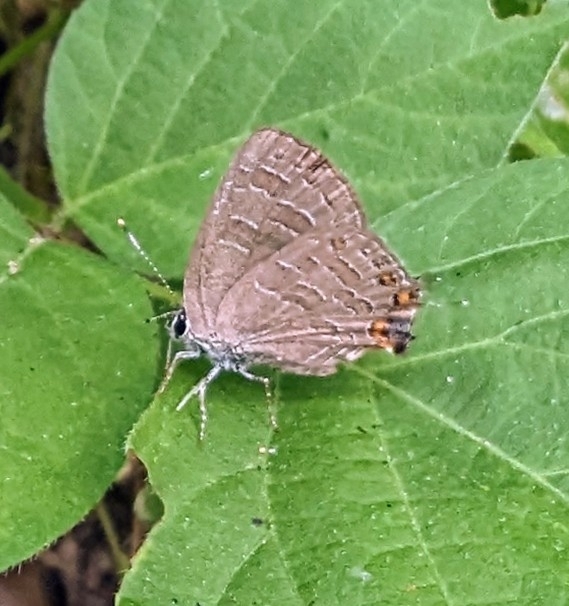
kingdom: Animalia
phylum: Arthropoda
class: Insecta
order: Lepidoptera
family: Lycaenidae
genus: Satyrium
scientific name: Satyrium liparops
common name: Striped hairstreak
